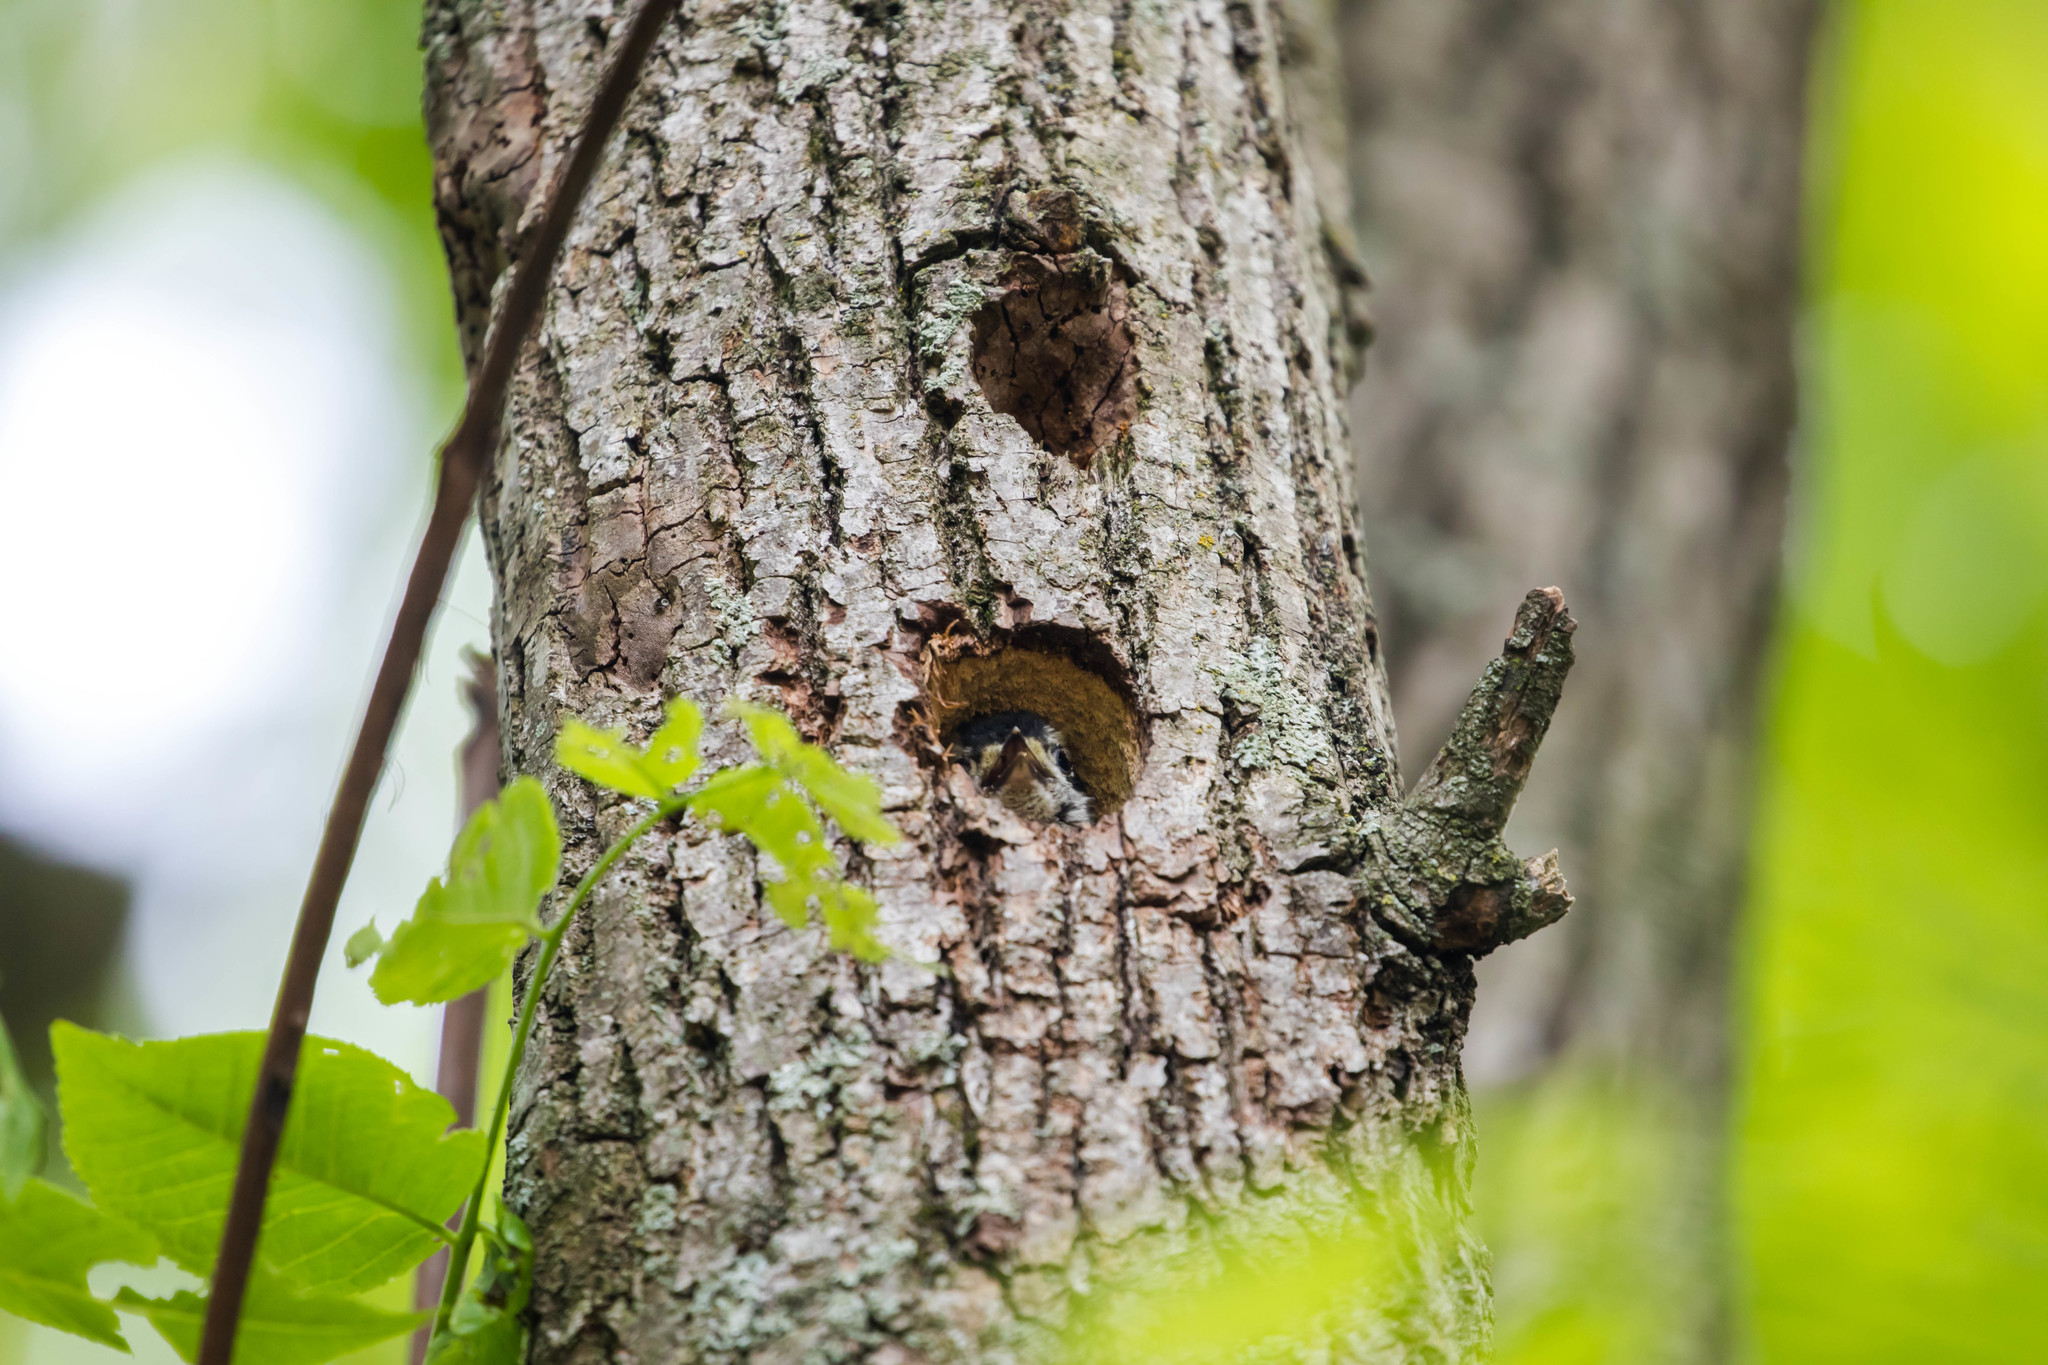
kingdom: Animalia
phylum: Chordata
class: Aves
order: Piciformes
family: Picidae
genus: Dryobates
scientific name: Dryobates pubescens
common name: Downy woodpecker
